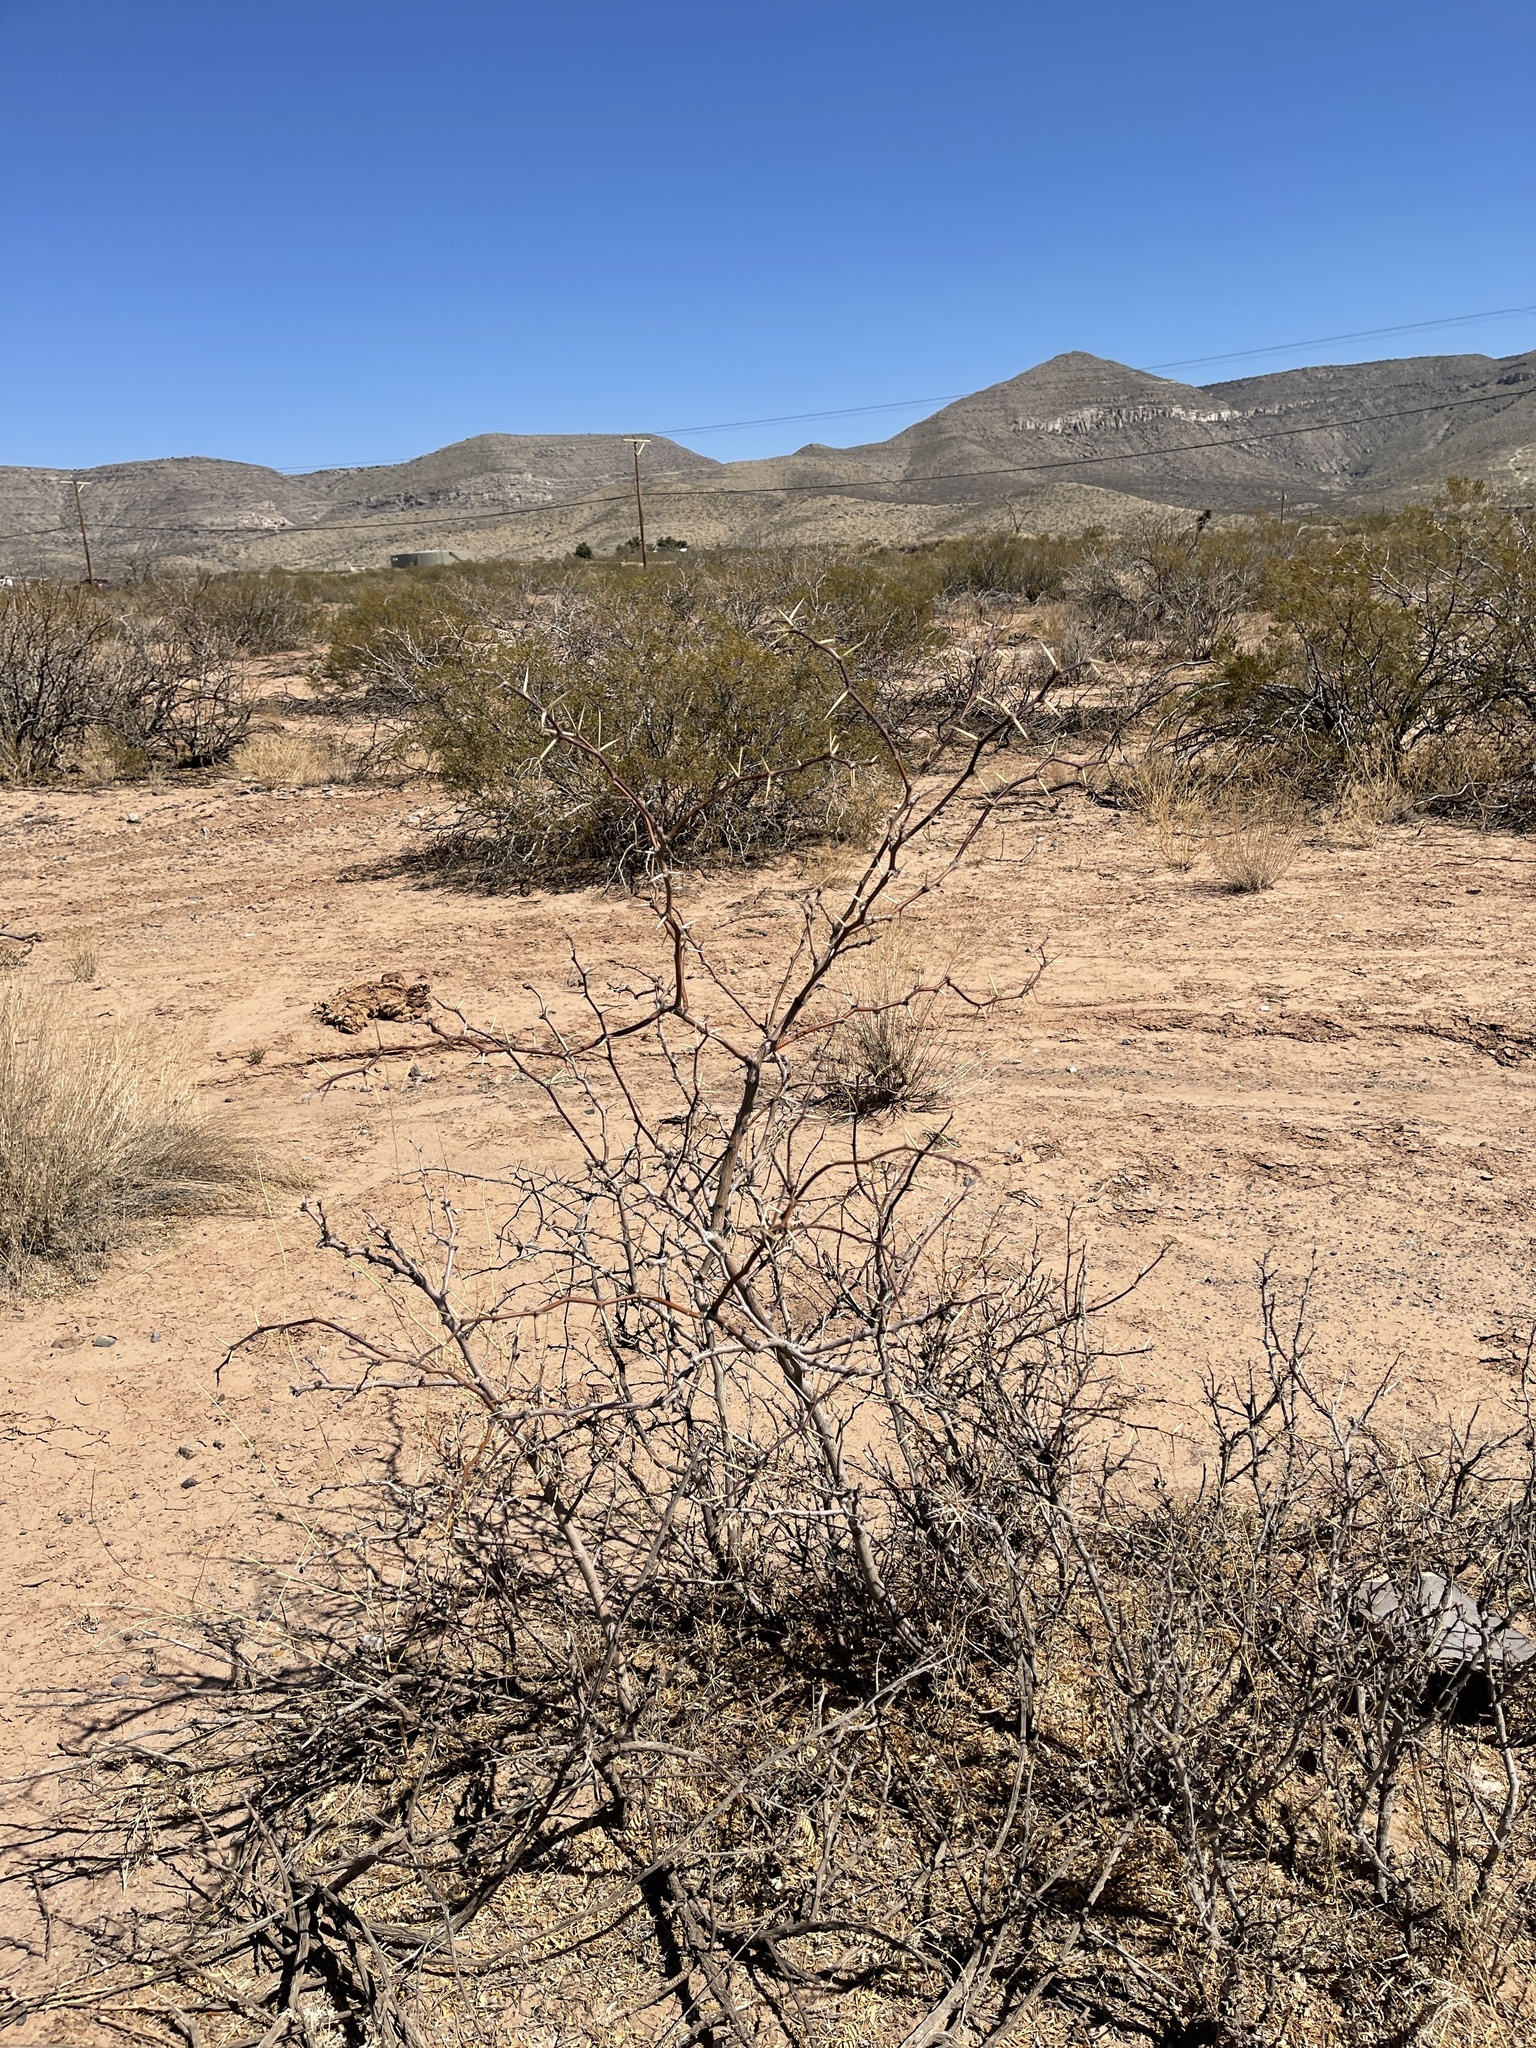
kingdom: Plantae
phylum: Tracheophyta
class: Magnoliopsida
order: Fabales
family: Fabaceae
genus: Prosopis
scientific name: Prosopis glandulosa
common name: Honey mesquite
